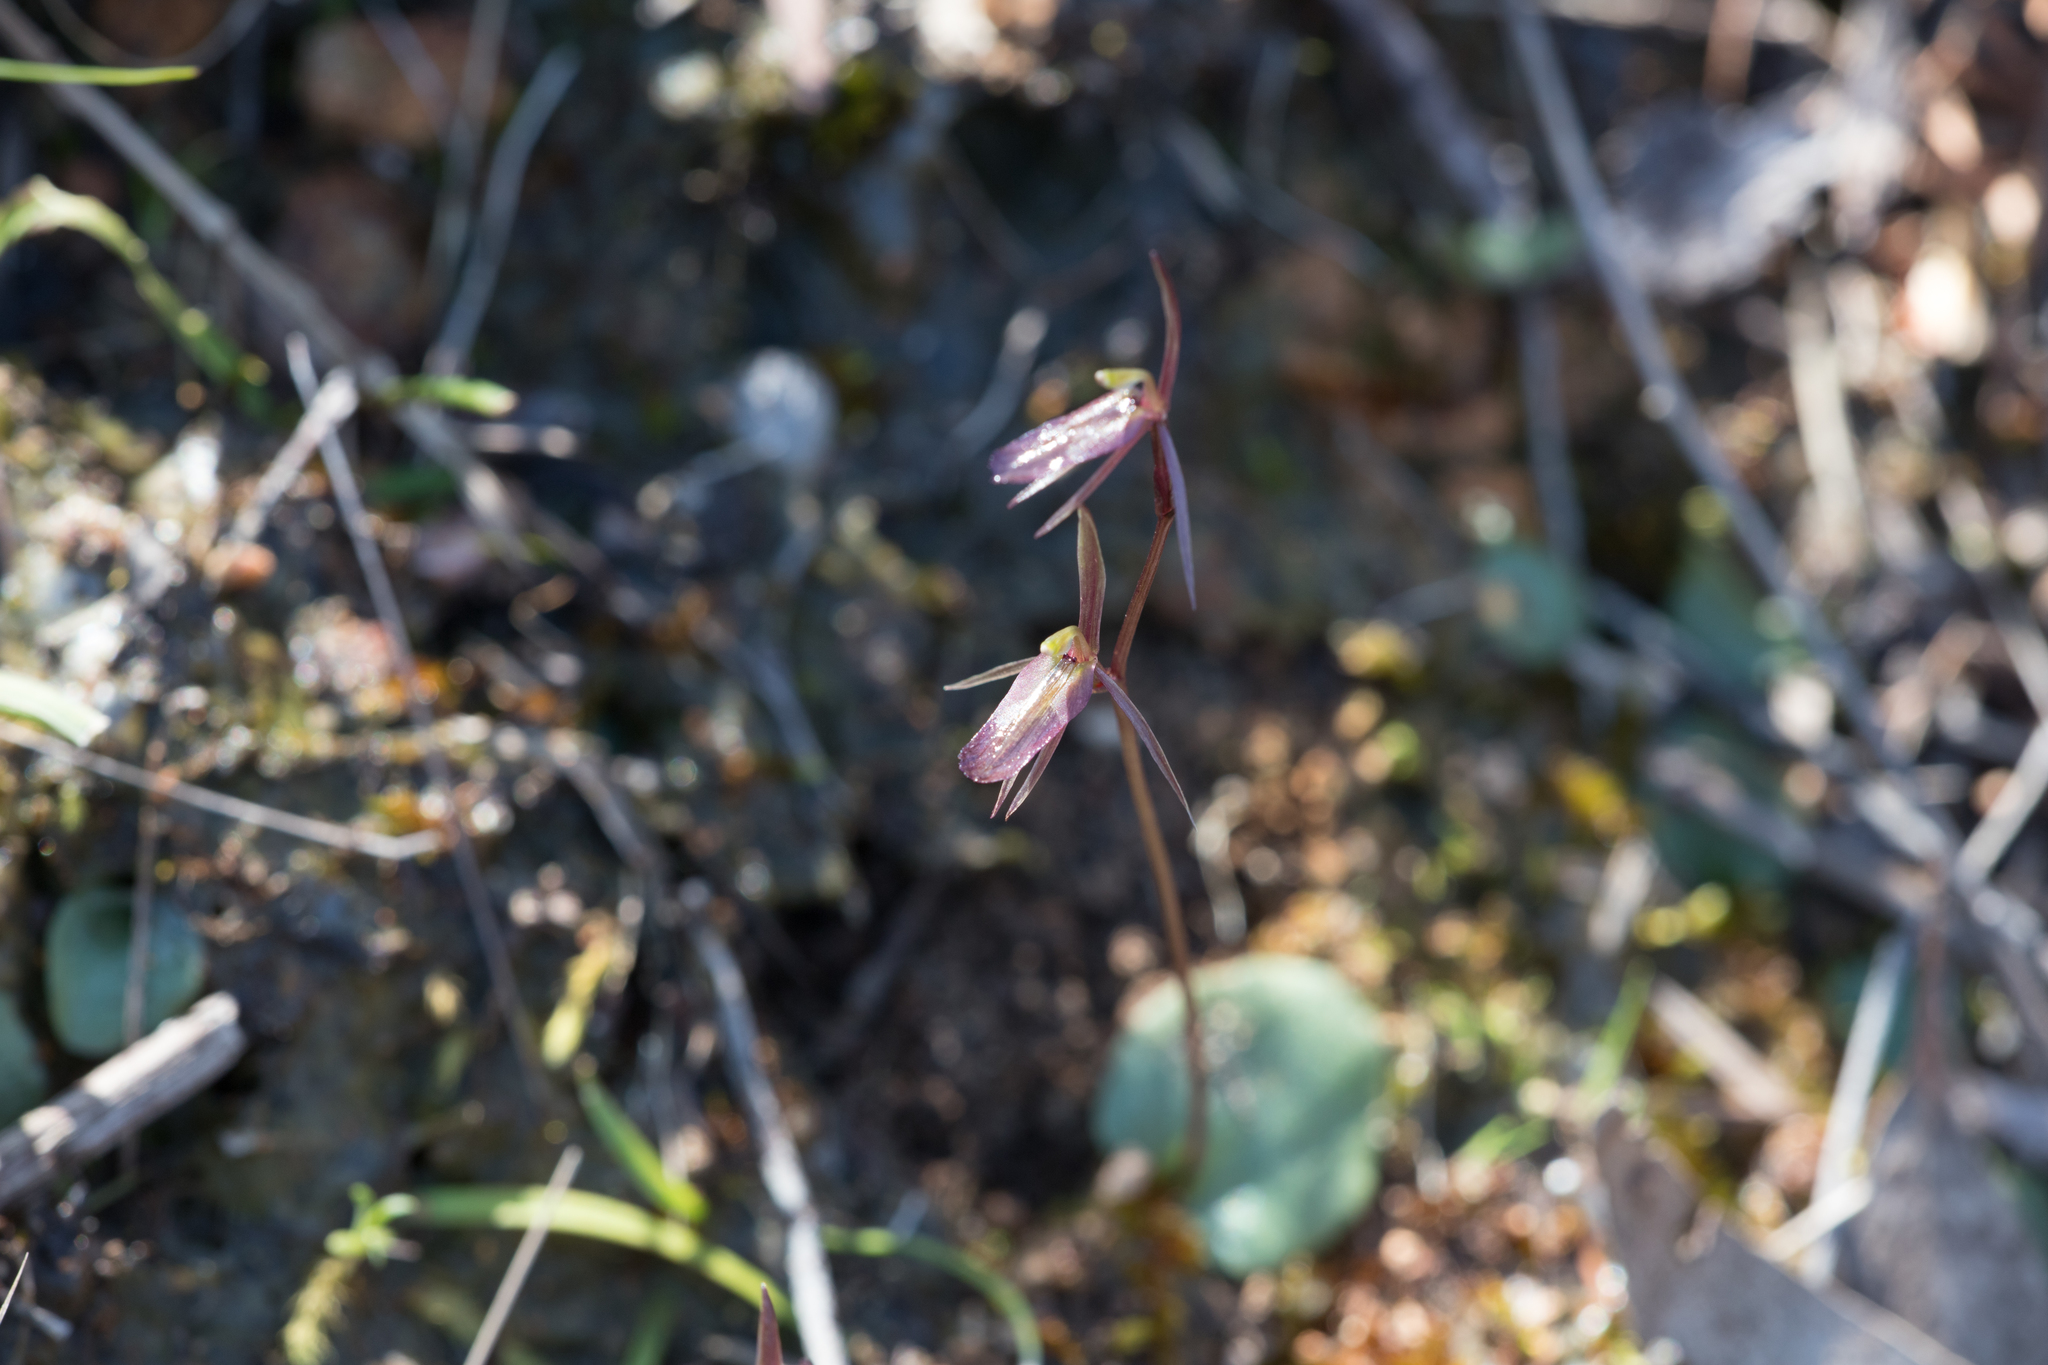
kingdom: Plantae
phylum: Tracheophyta
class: Liliopsida
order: Asparagales
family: Orchidaceae
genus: Cyrtostylis
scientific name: Cyrtostylis reniformis
